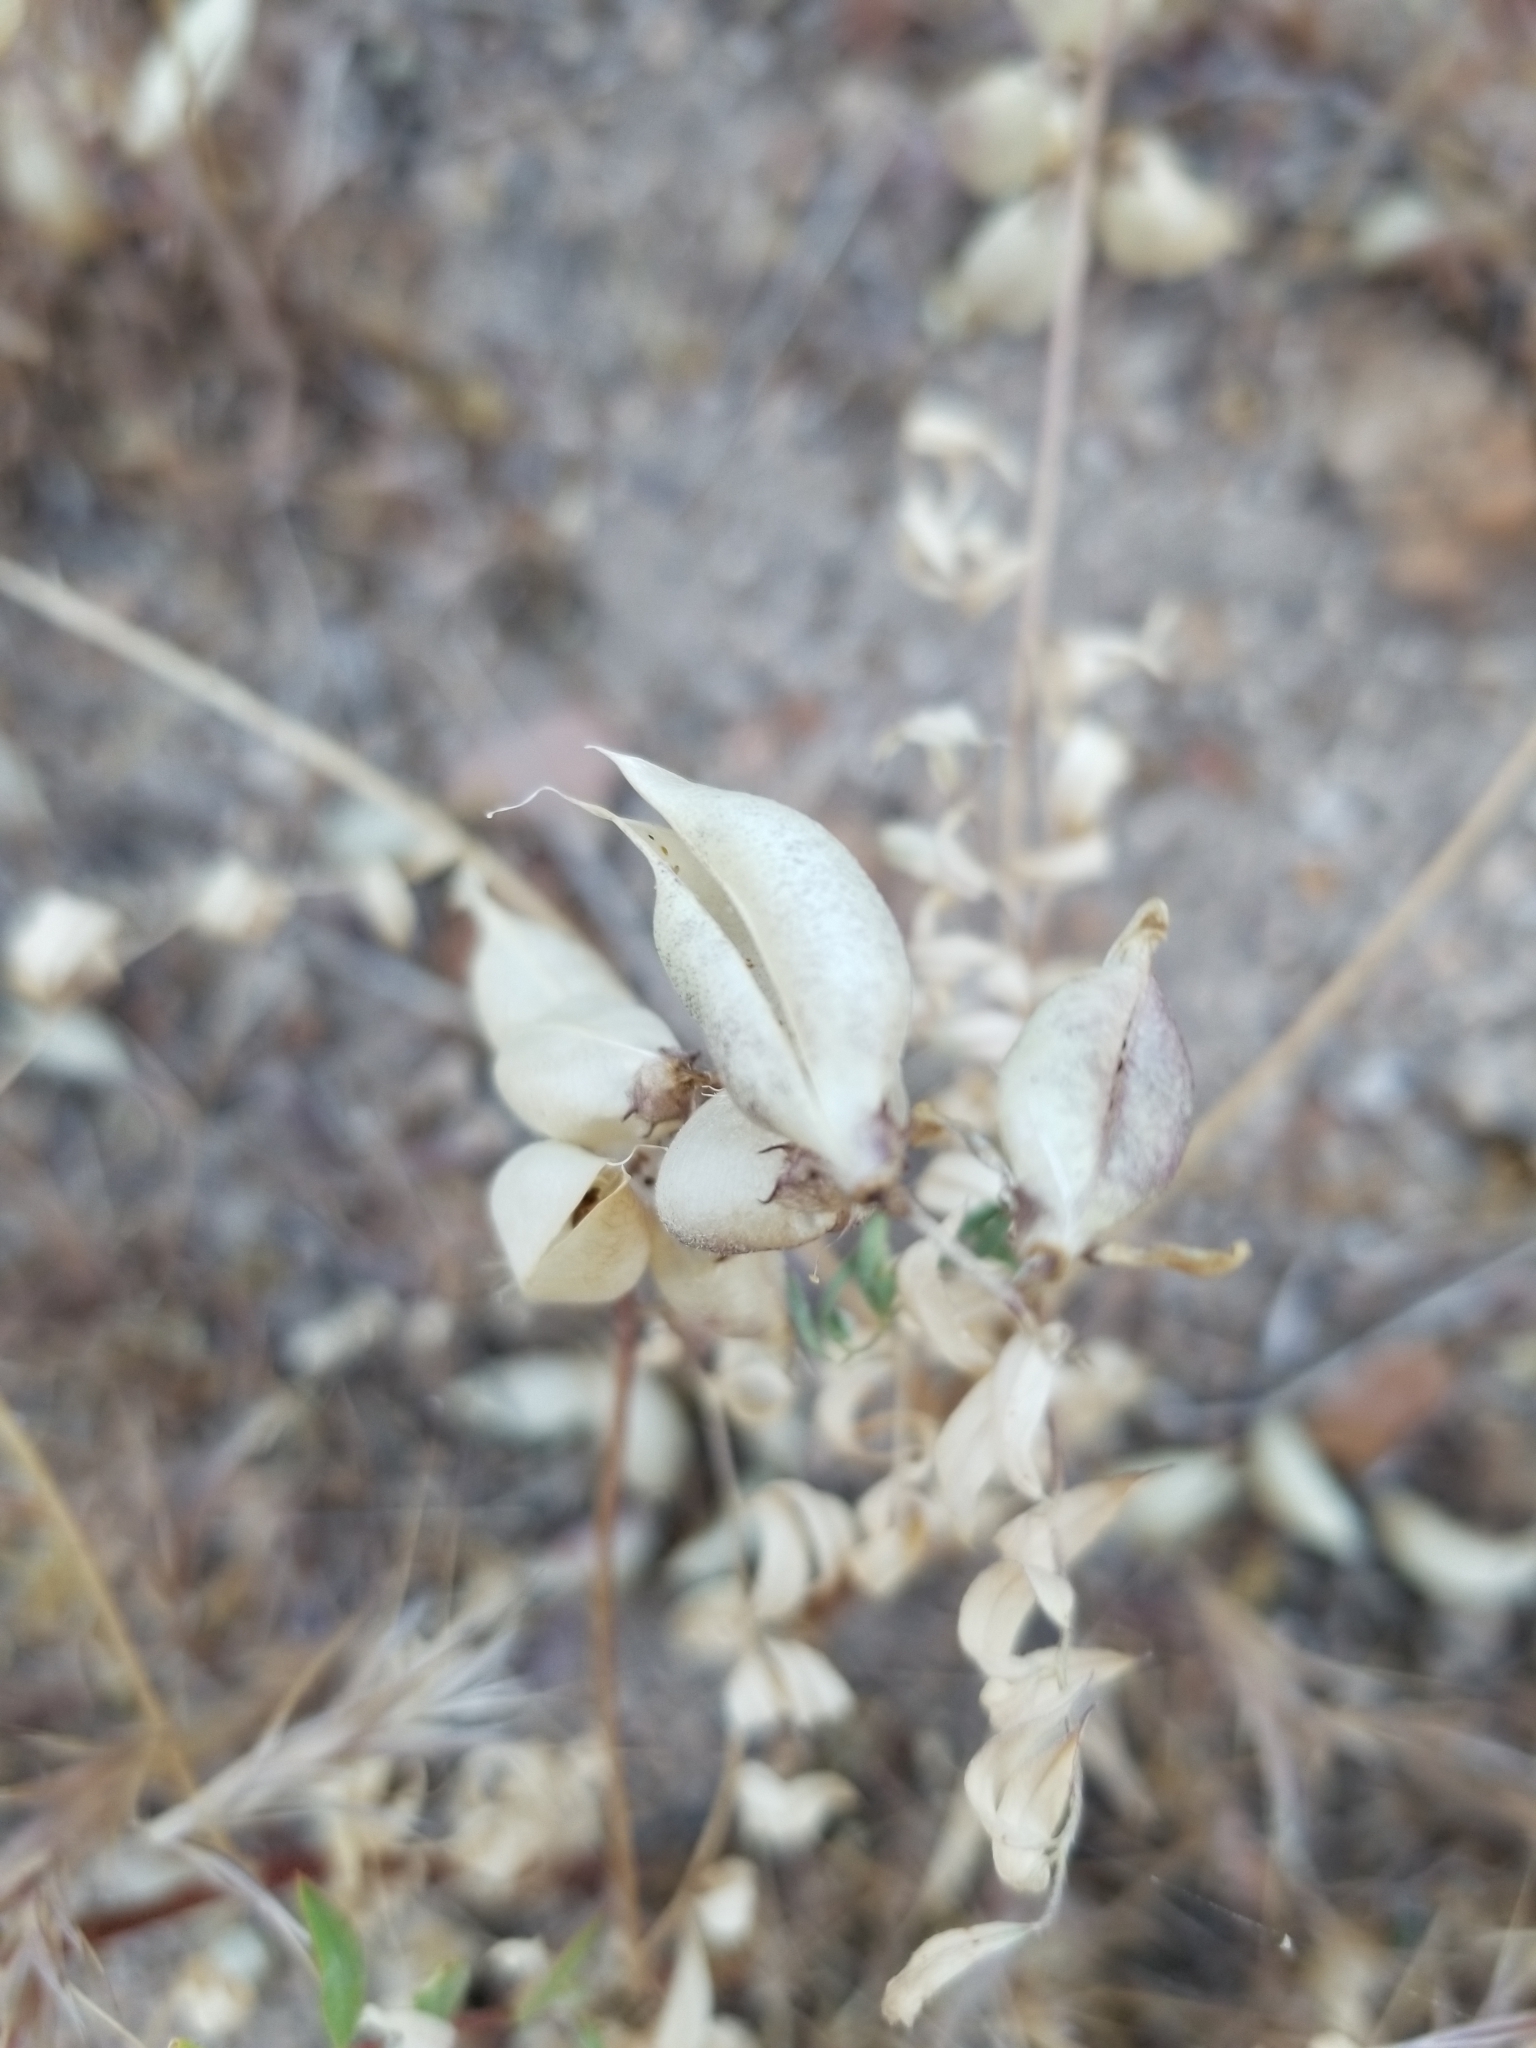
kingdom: Plantae
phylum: Tracheophyta
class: Magnoliopsida
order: Fabales
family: Fabaceae
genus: Astragalus
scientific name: Astragalus lentiginosus
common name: Freckled milkvetch
